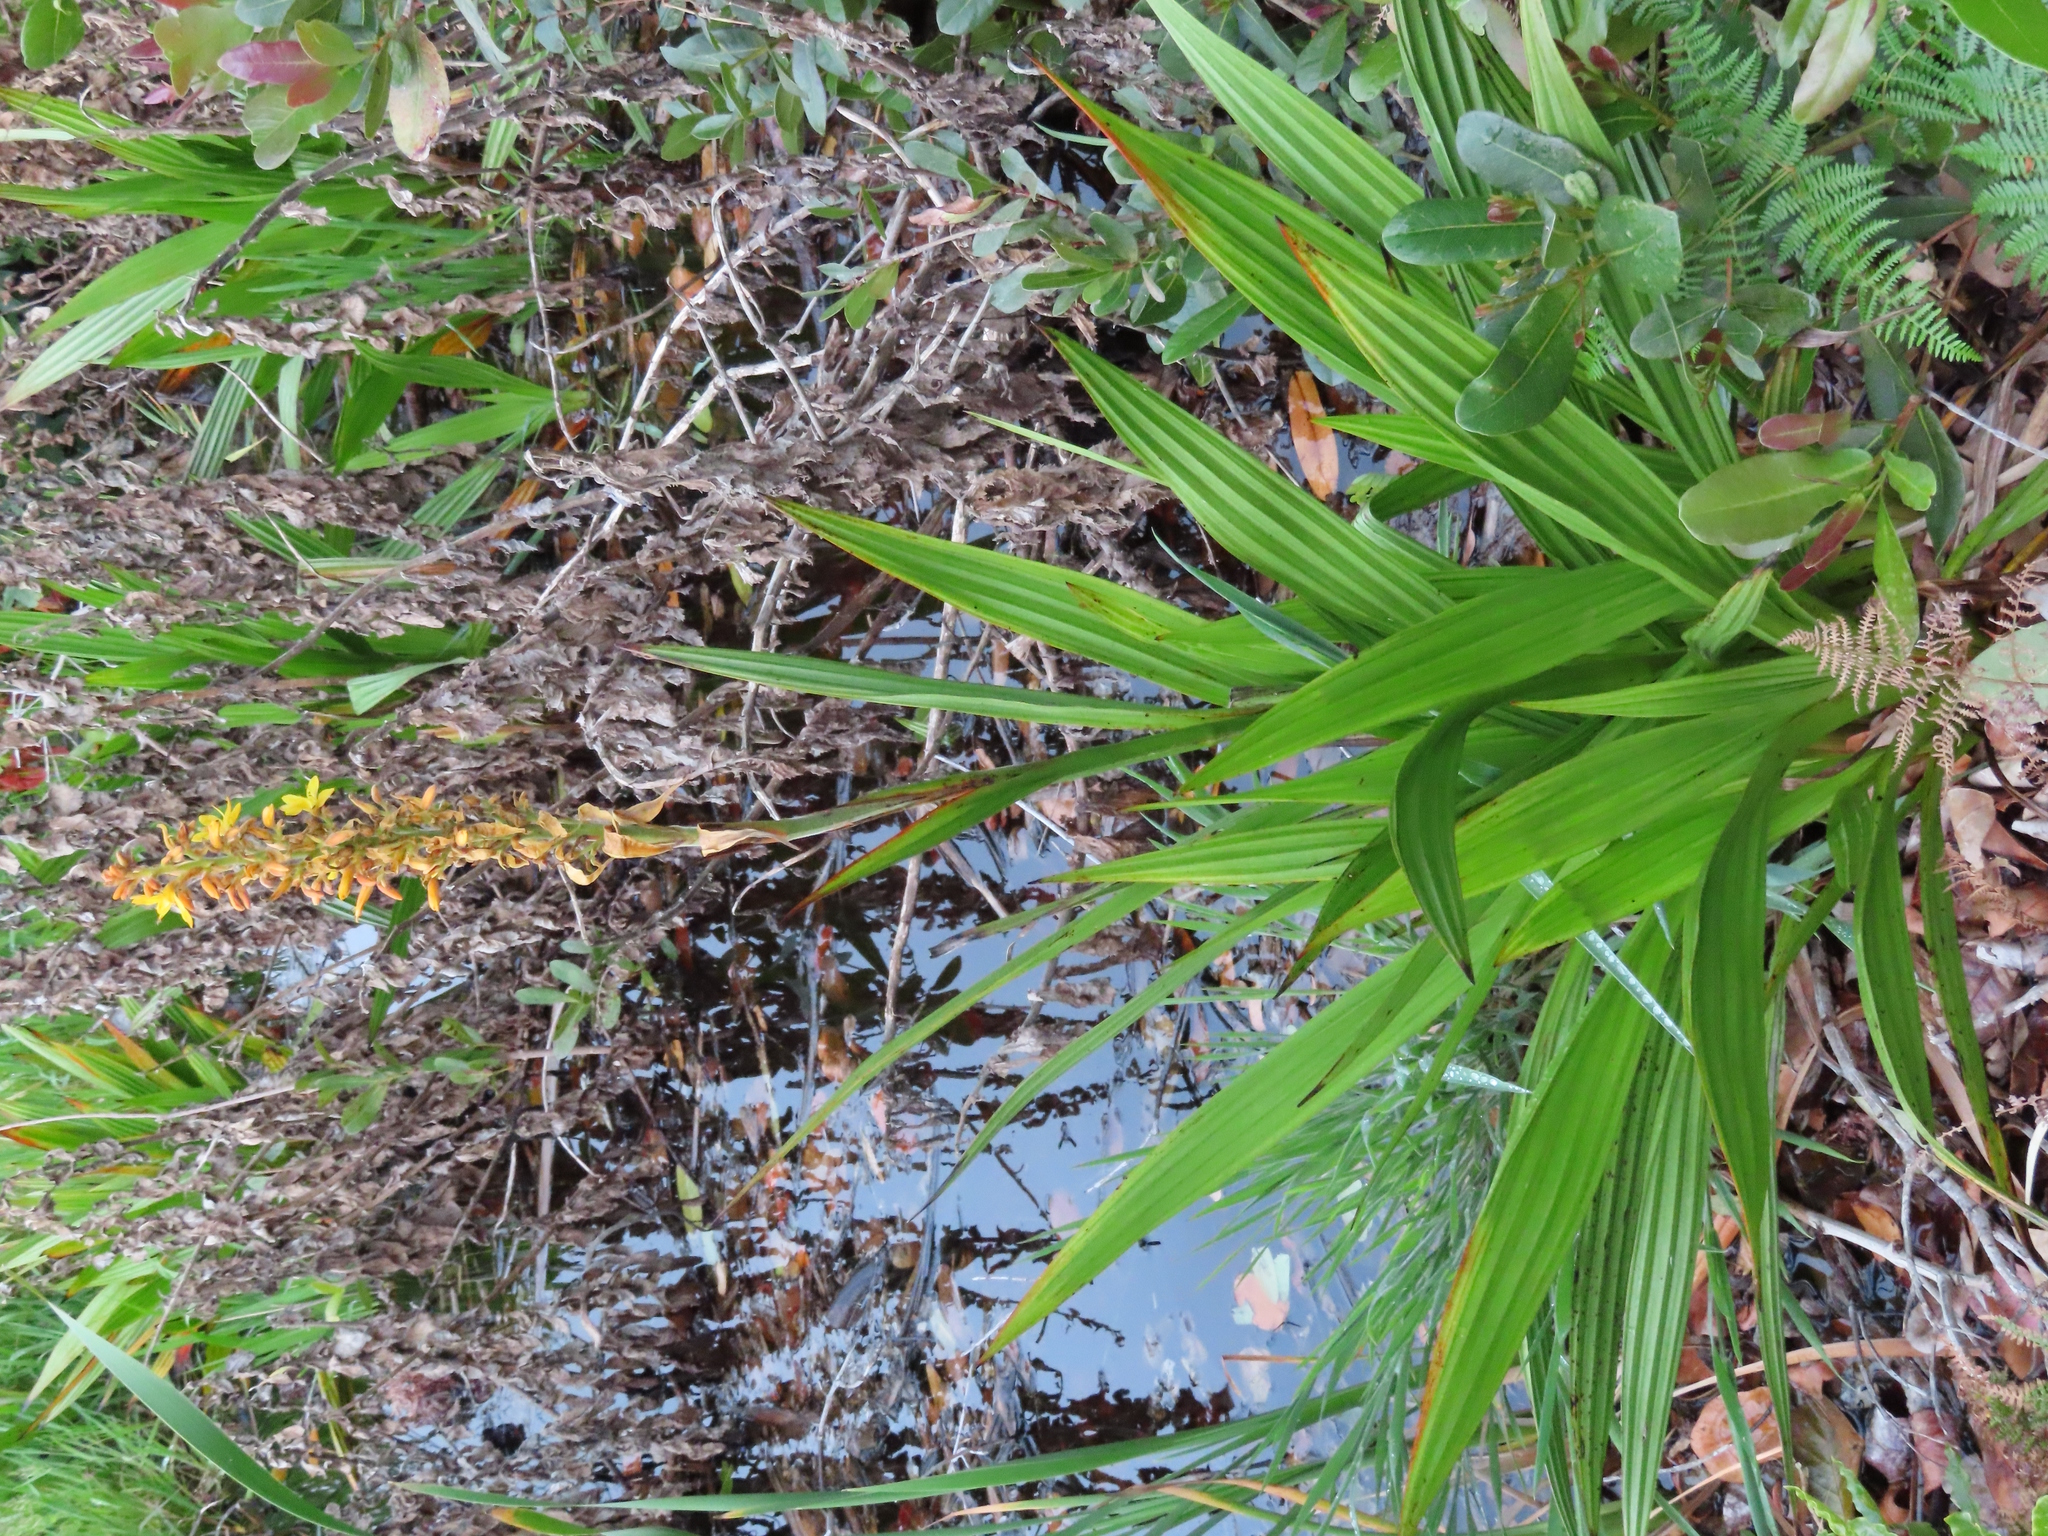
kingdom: Plantae
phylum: Tracheophyta
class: Liliopsida
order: Commelinales
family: Haemodoraceae
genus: Wachendorfia
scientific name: Wachendorfia thyrsiflora
